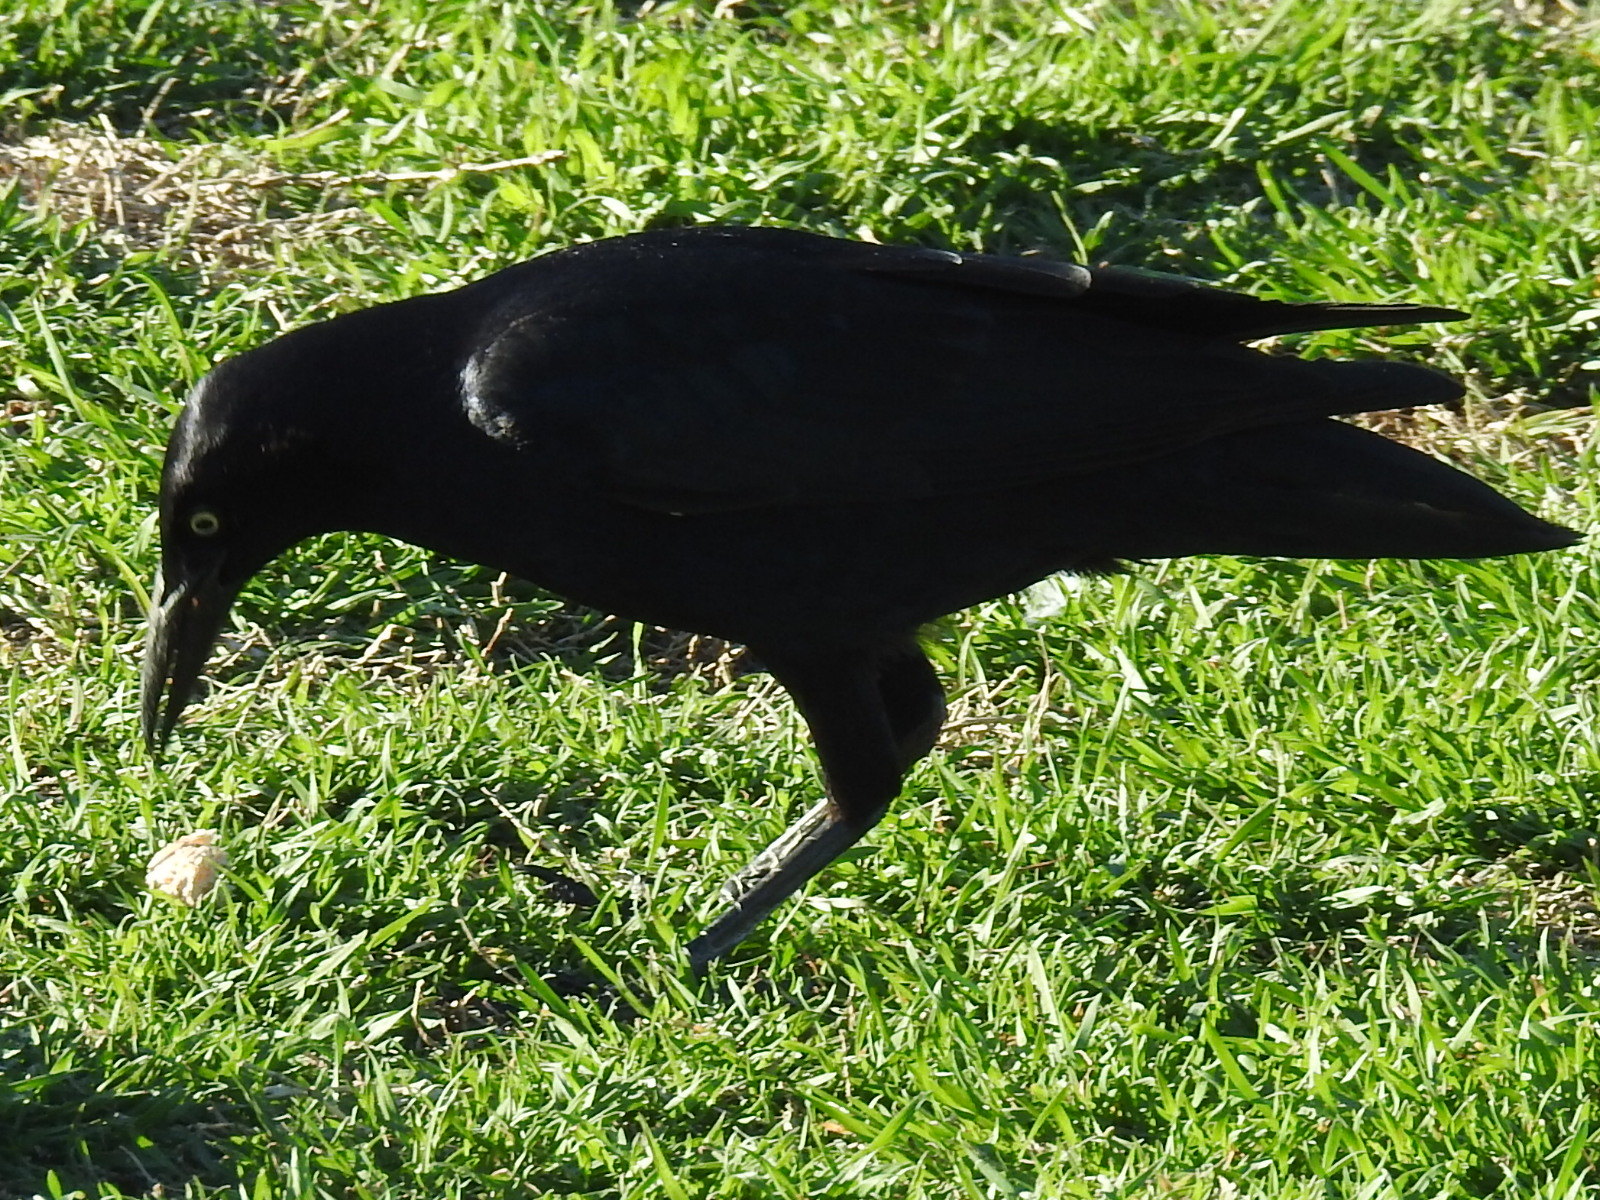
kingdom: Animalia
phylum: Chordata
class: Aves
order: Passeriformes
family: Icteridae
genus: Quiscalus
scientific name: Quiscalus mexicanus
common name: Great-tailed grackle
